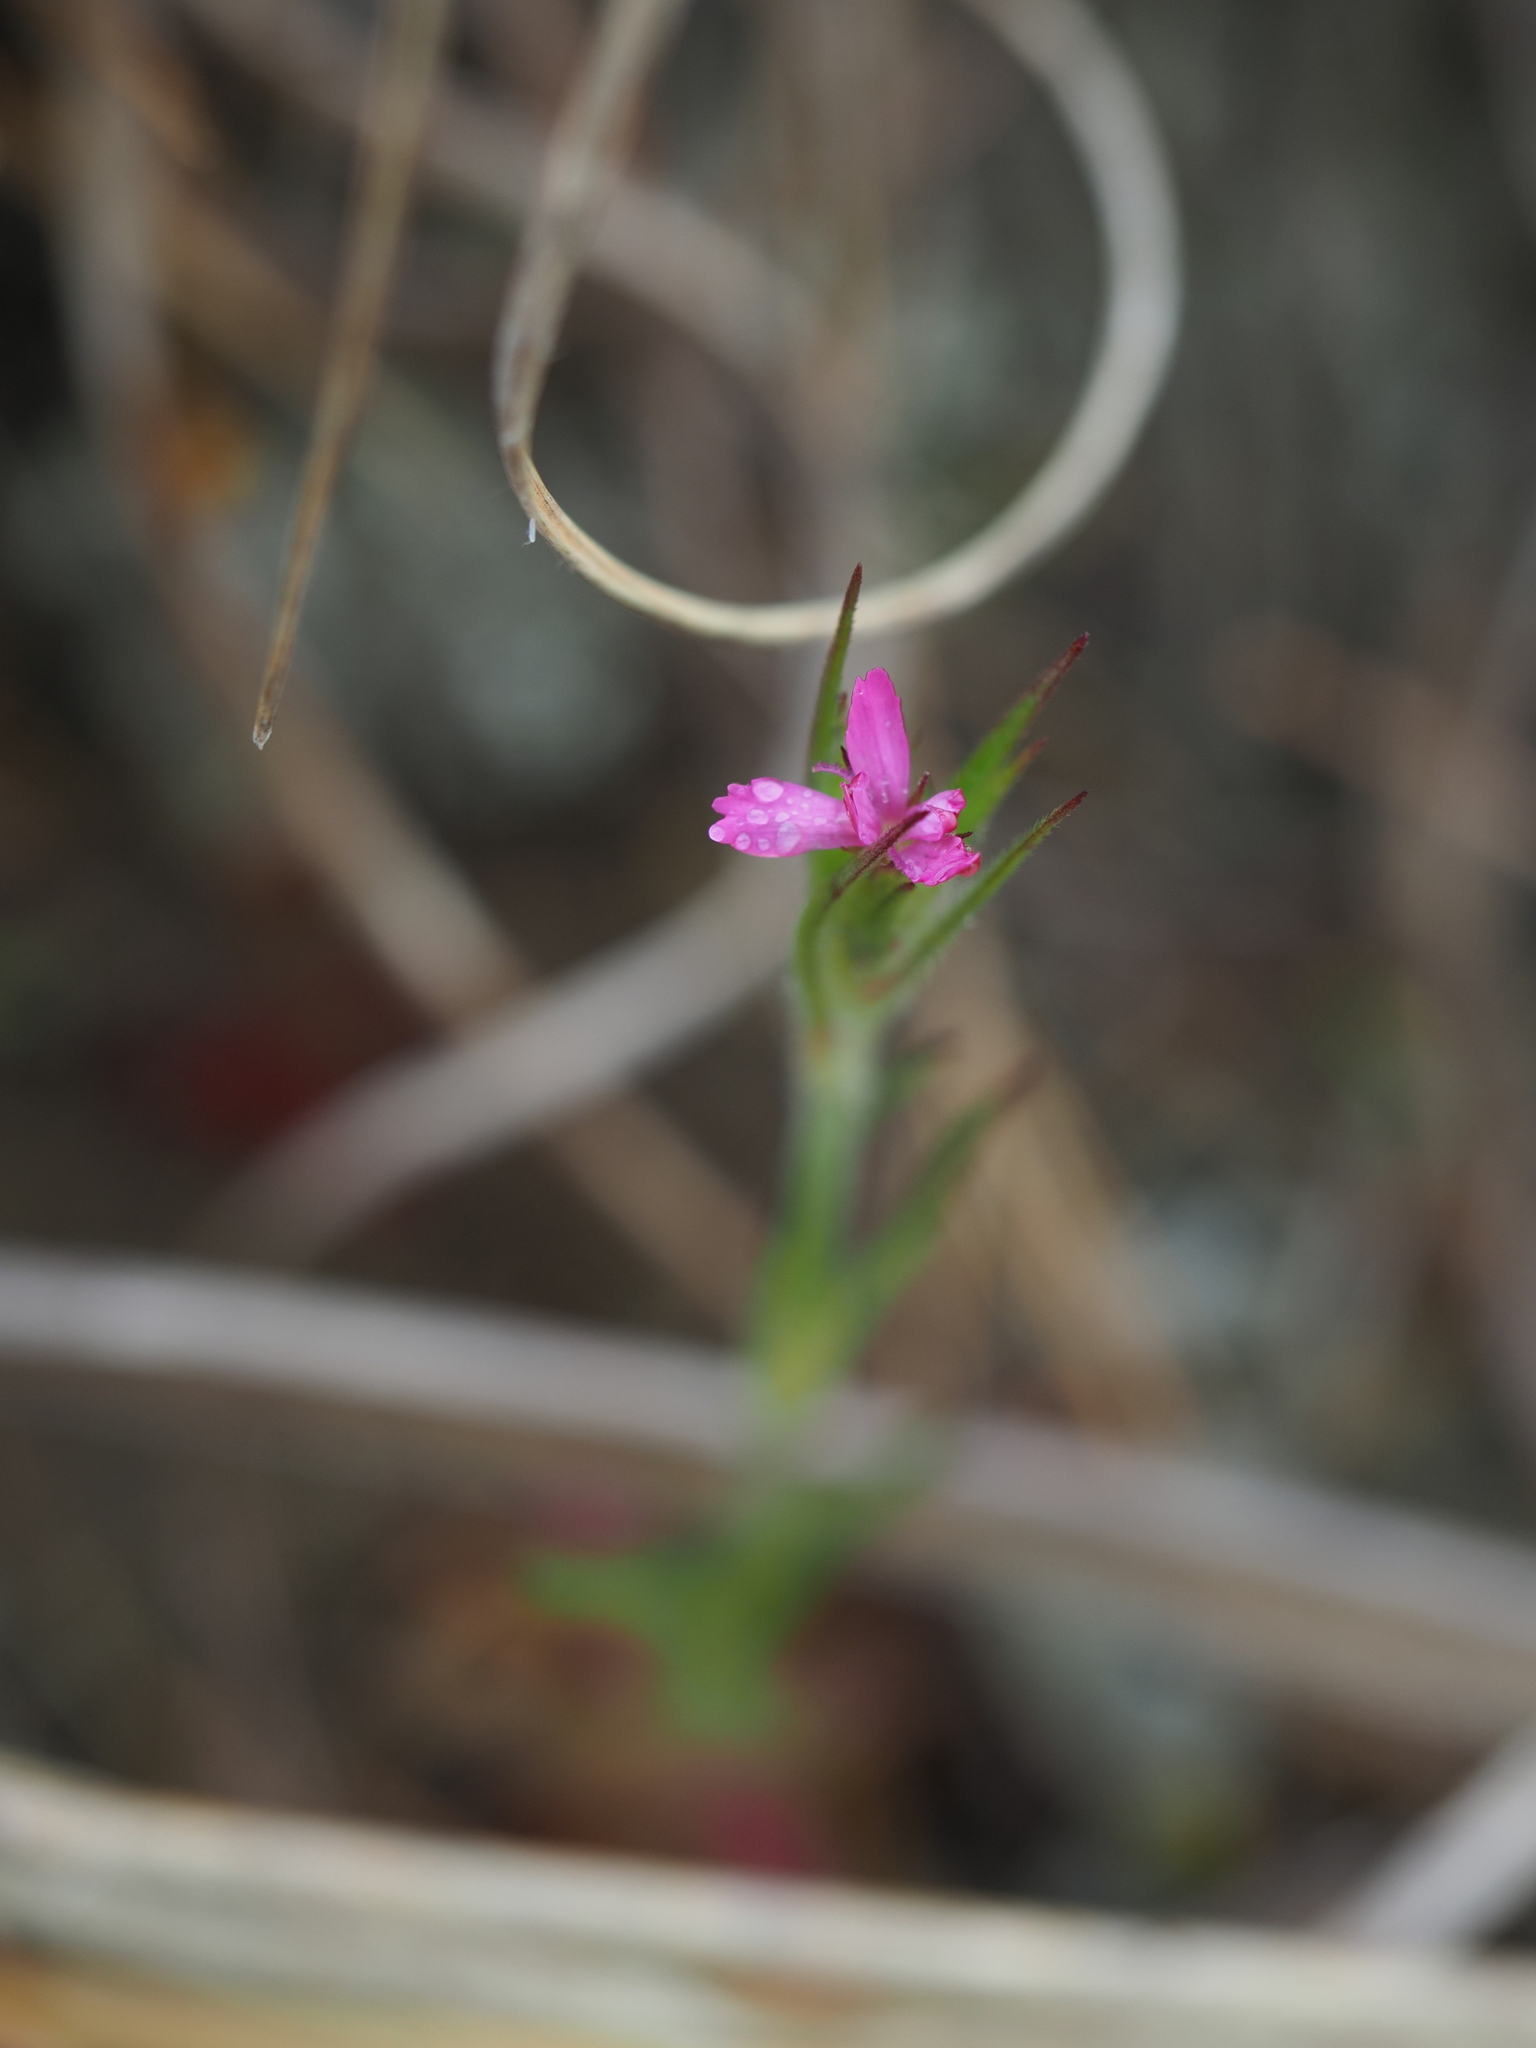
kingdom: Plantae
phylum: Tracheophyta
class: Magnoliopsida
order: Caryophyllales
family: Caryophyllaceae
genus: Dianthus
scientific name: Dianthus armeria
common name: Deptford pink
